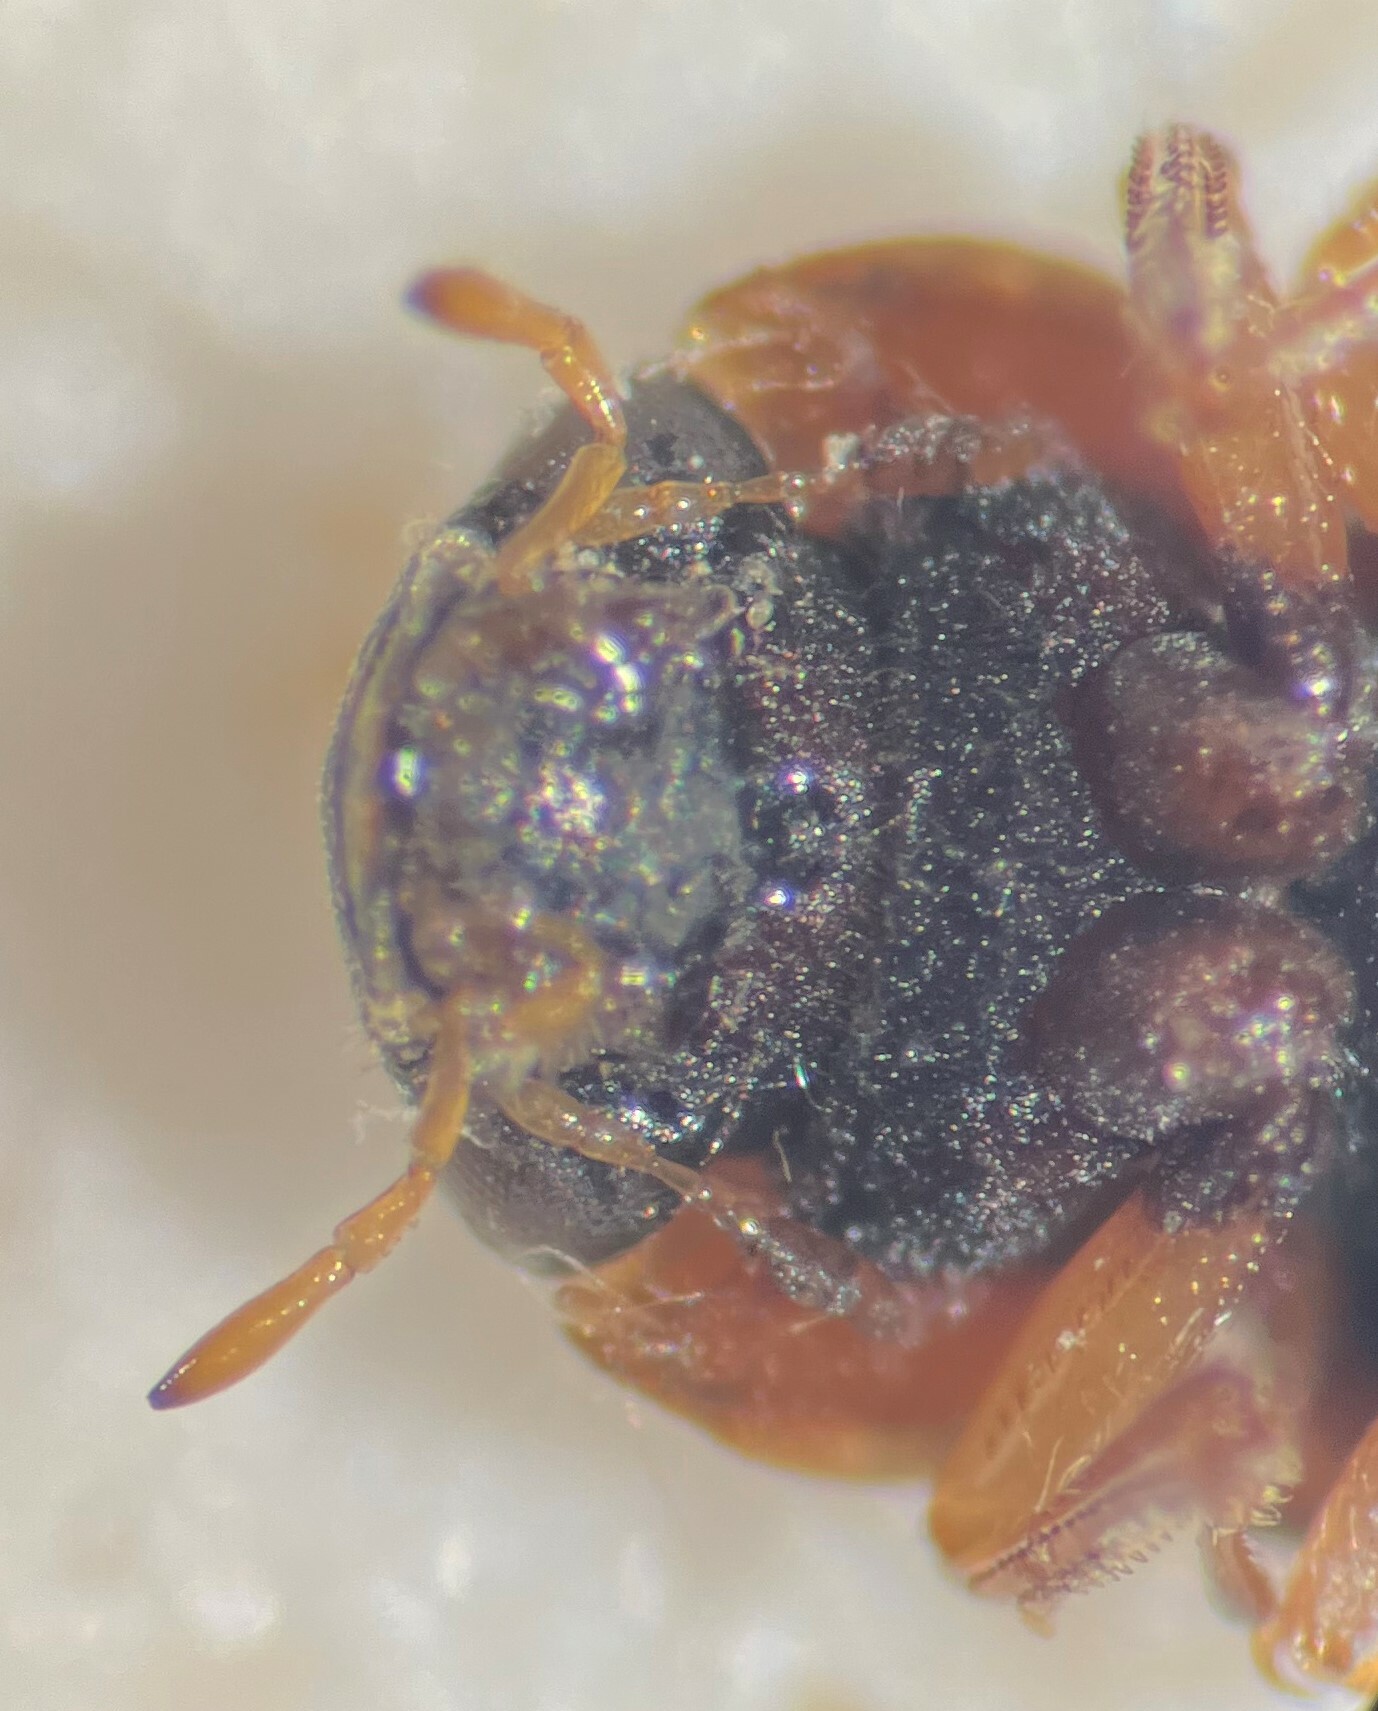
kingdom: Animalia
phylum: Arthropoda
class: Insecta
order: Coleoptera
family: Helophoridae
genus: Helophorus
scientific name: Helophorus lacustris
